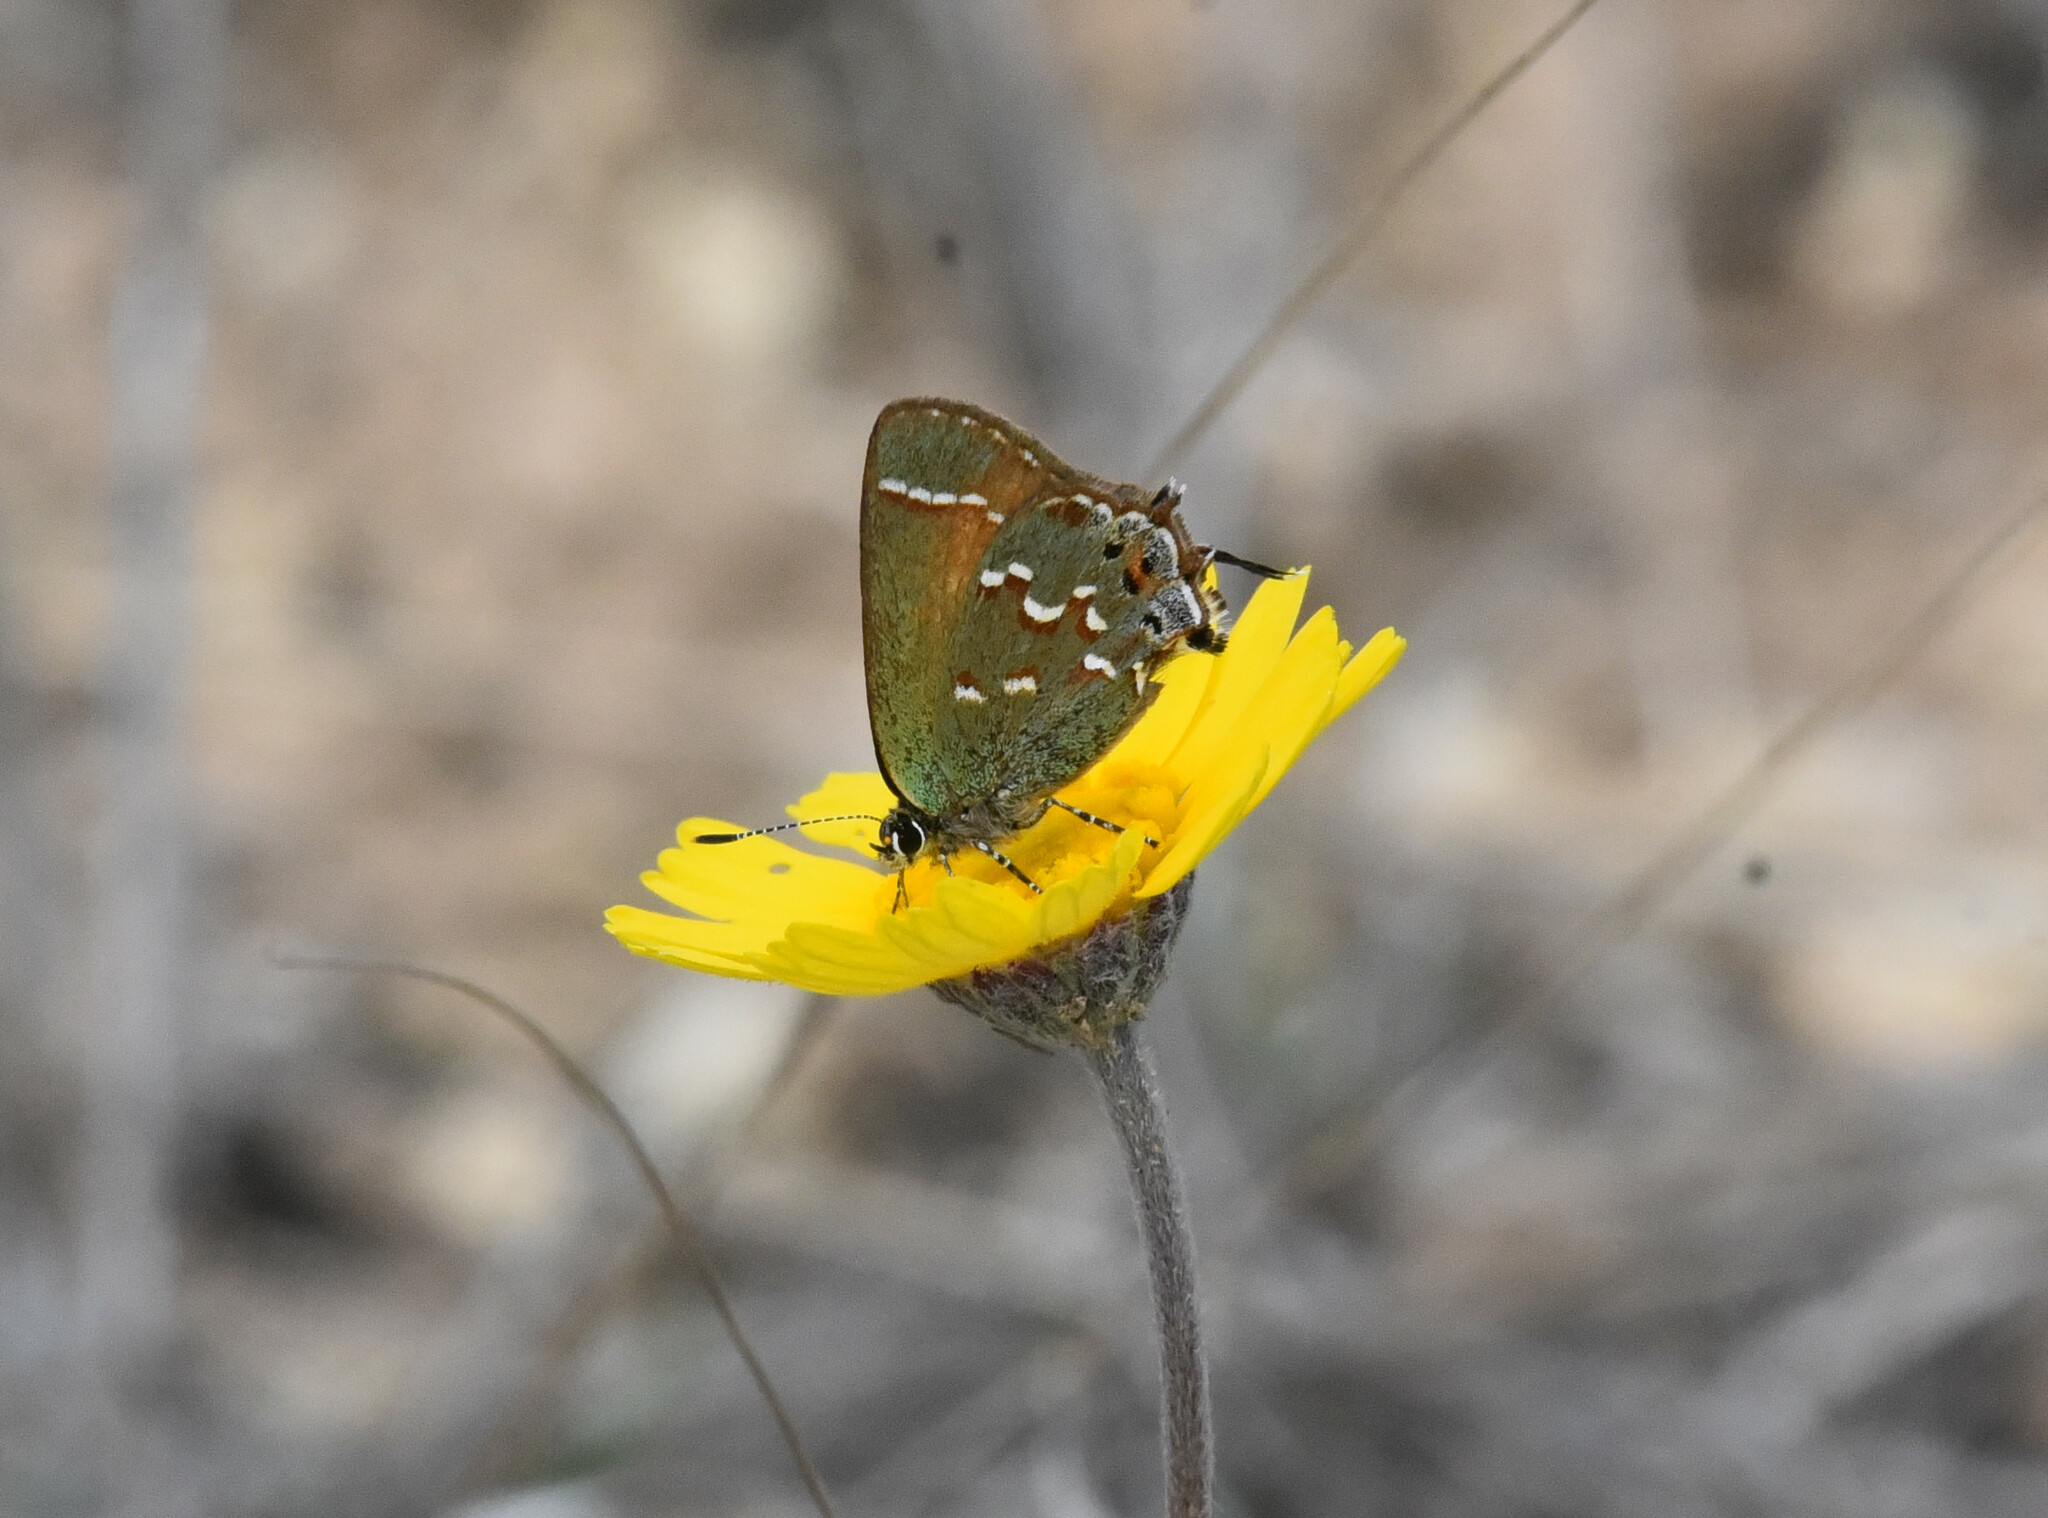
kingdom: Animalia
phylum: Arthropoda
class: Insecta
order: Lepidoptera
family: Lycaenidae
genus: Mitoura
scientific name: Mitoura gryneus
